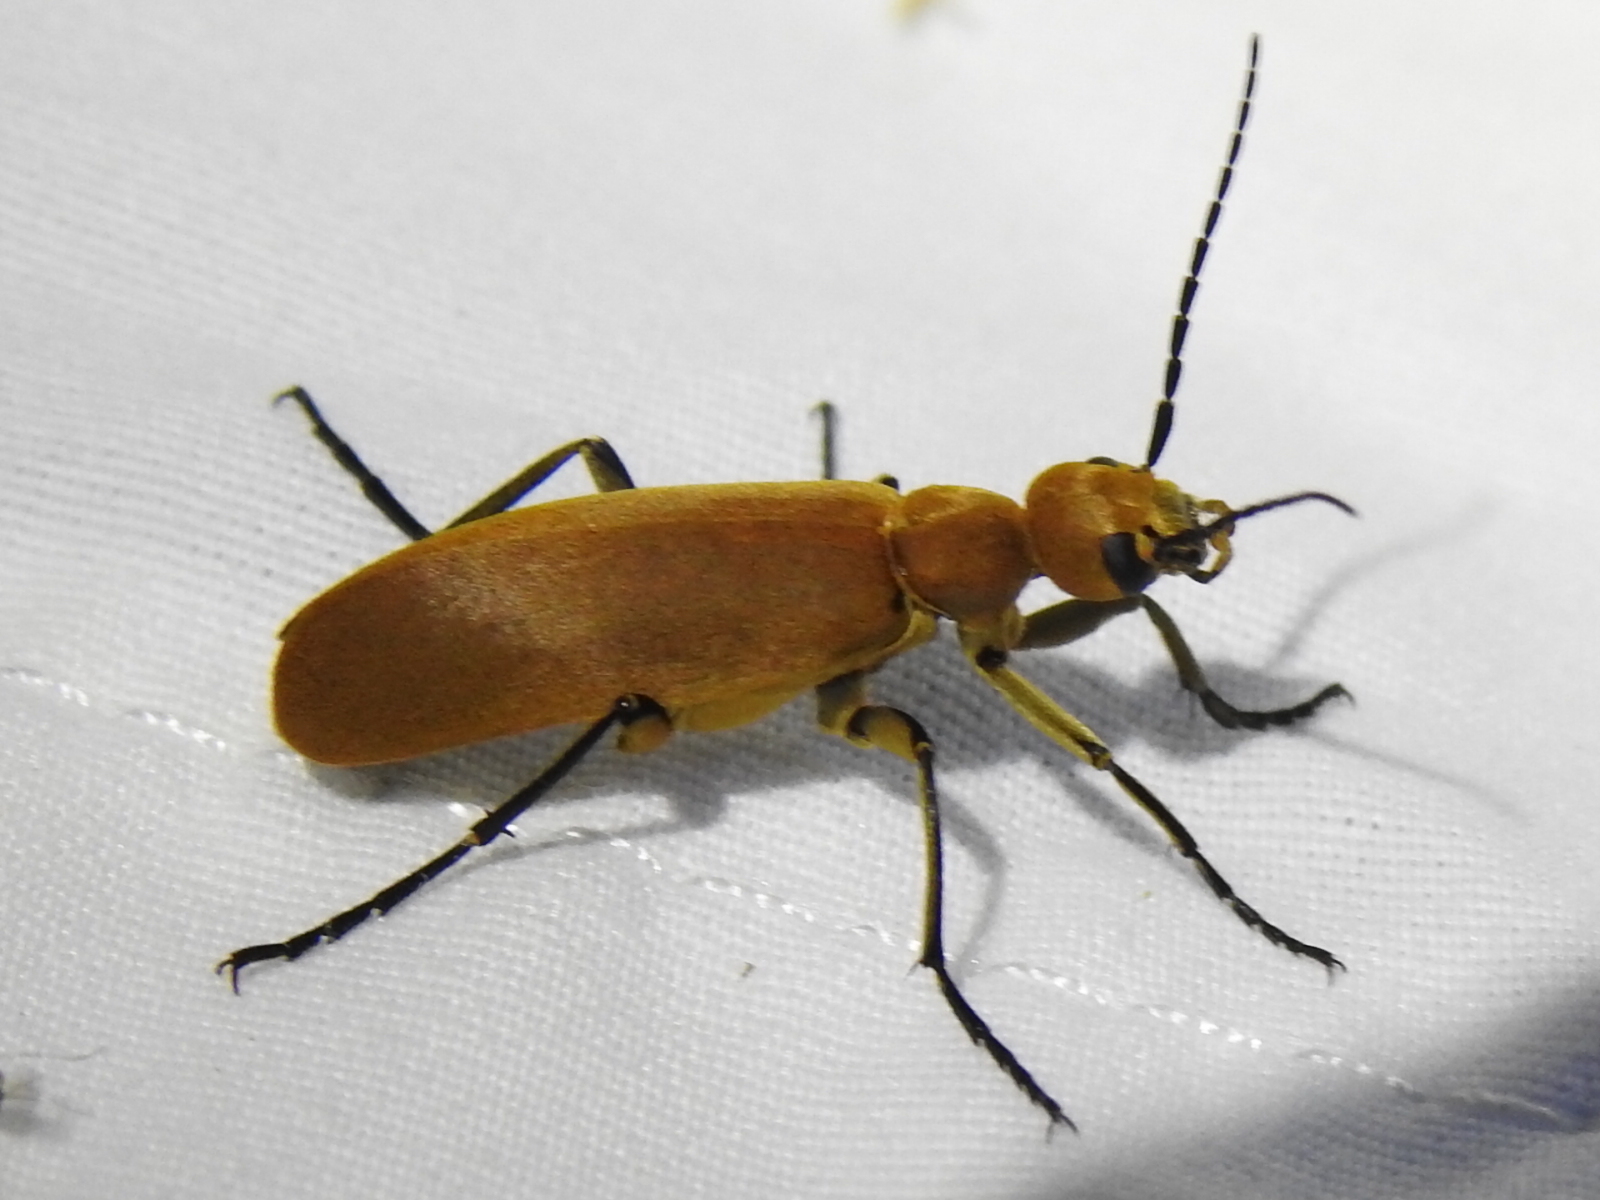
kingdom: Animalia
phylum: Arthropoda
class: Insecta
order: Coleoptera
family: Meloidae
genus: Epicauta
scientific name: Epicauta immaculata
